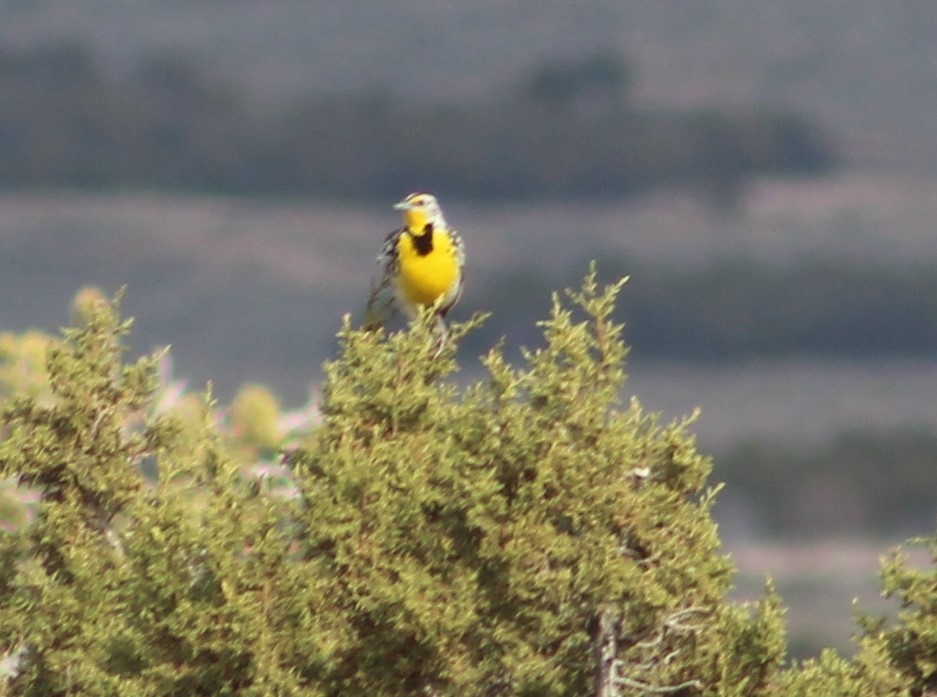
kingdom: Animalia
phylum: Chordata
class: Aves
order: Passeriformes
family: Icteridae
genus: Sturnella
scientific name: Sturnella neglecta
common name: Western meadowlark
